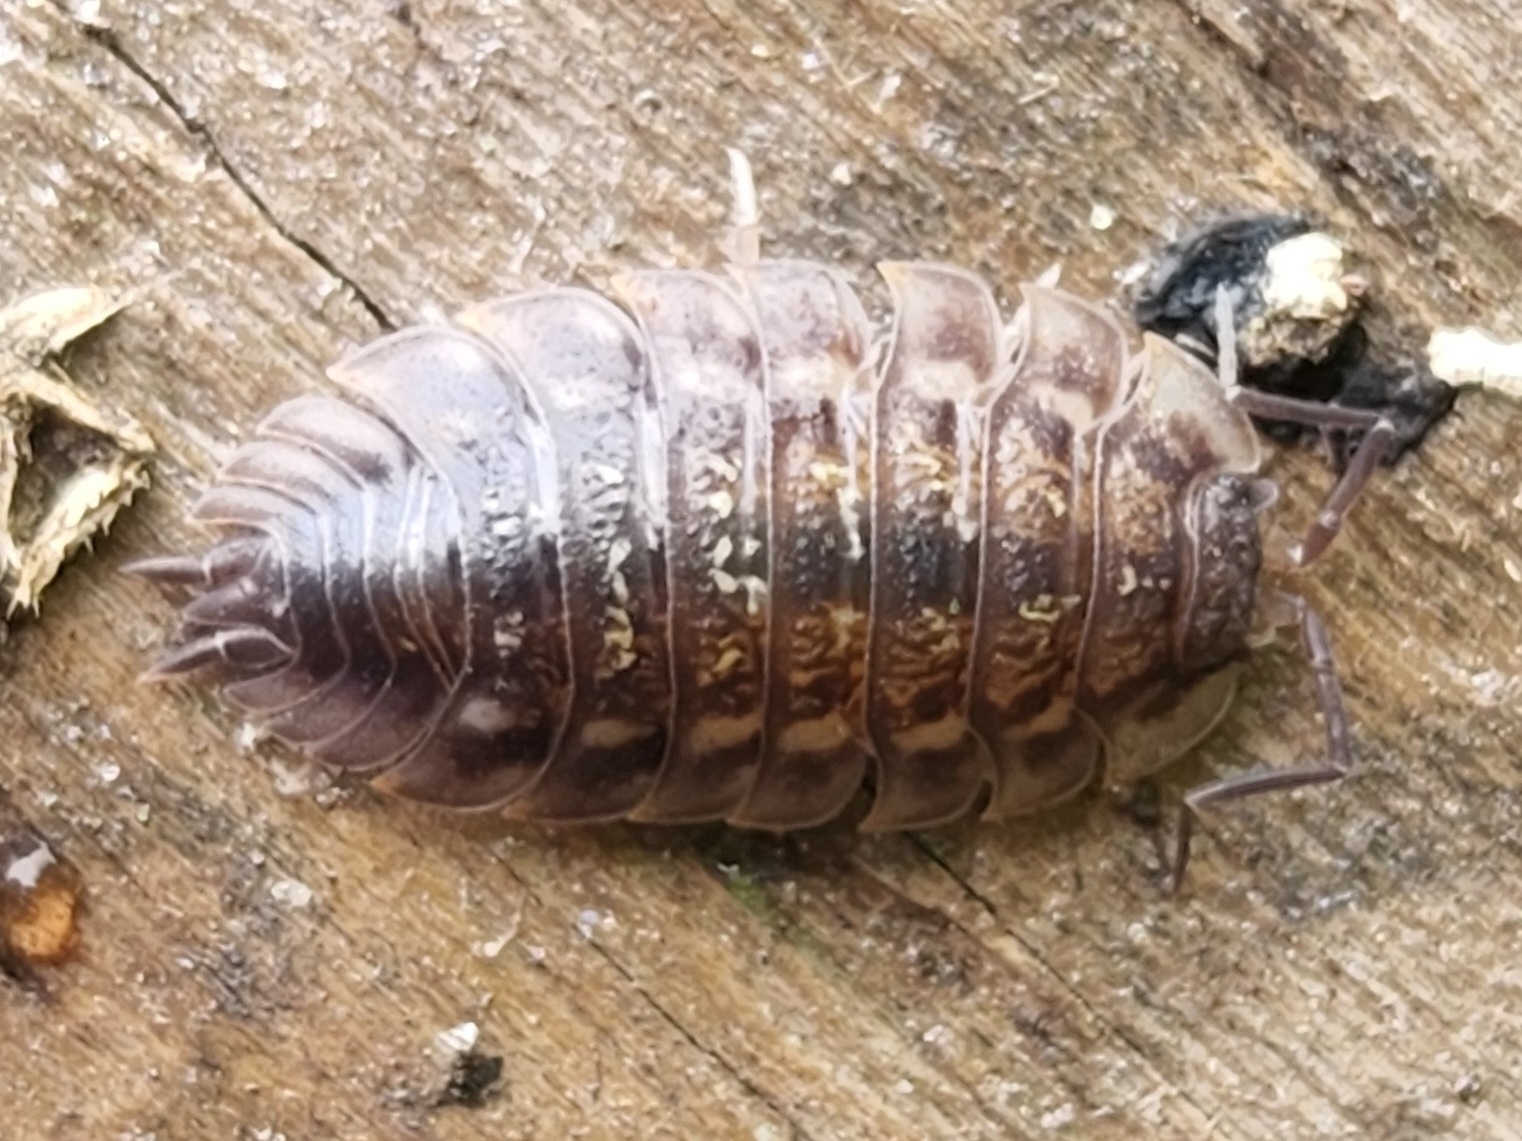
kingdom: Animalia
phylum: Arthropoda
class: Malacostraca
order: Isopoda
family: Oniscidae
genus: Oniscus
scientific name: Oniscus asellus
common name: Common shiny woodlouse
